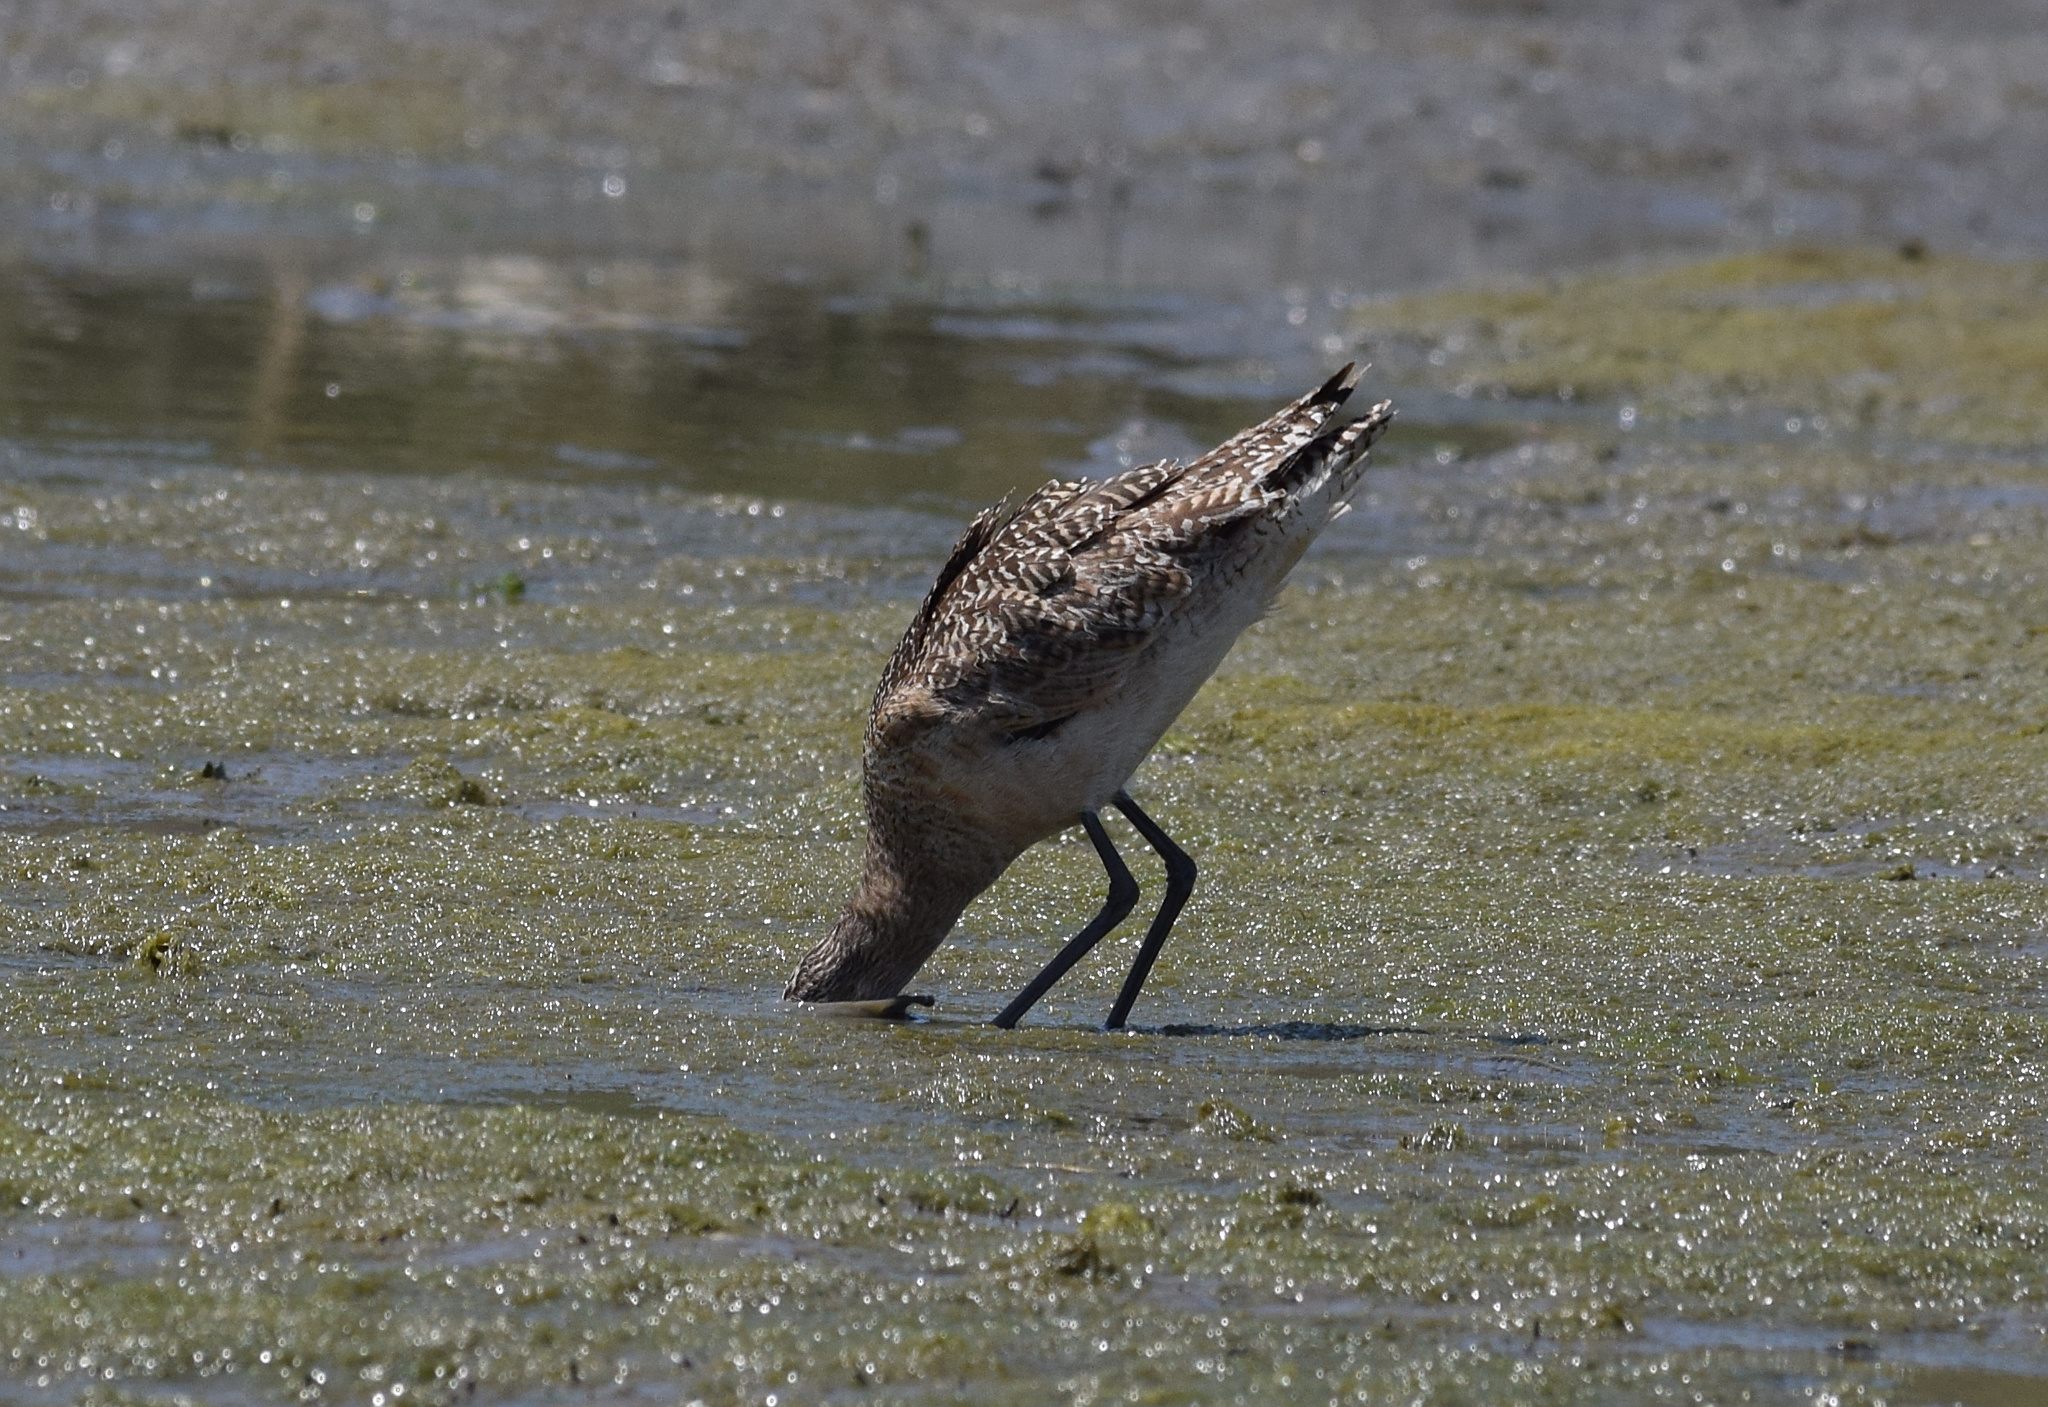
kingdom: Animalia
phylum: Chordata
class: Aves
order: Charadriiformes
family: Scolopacidae
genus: Limosa
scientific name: Limosa fedoa
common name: Marbled godwit
